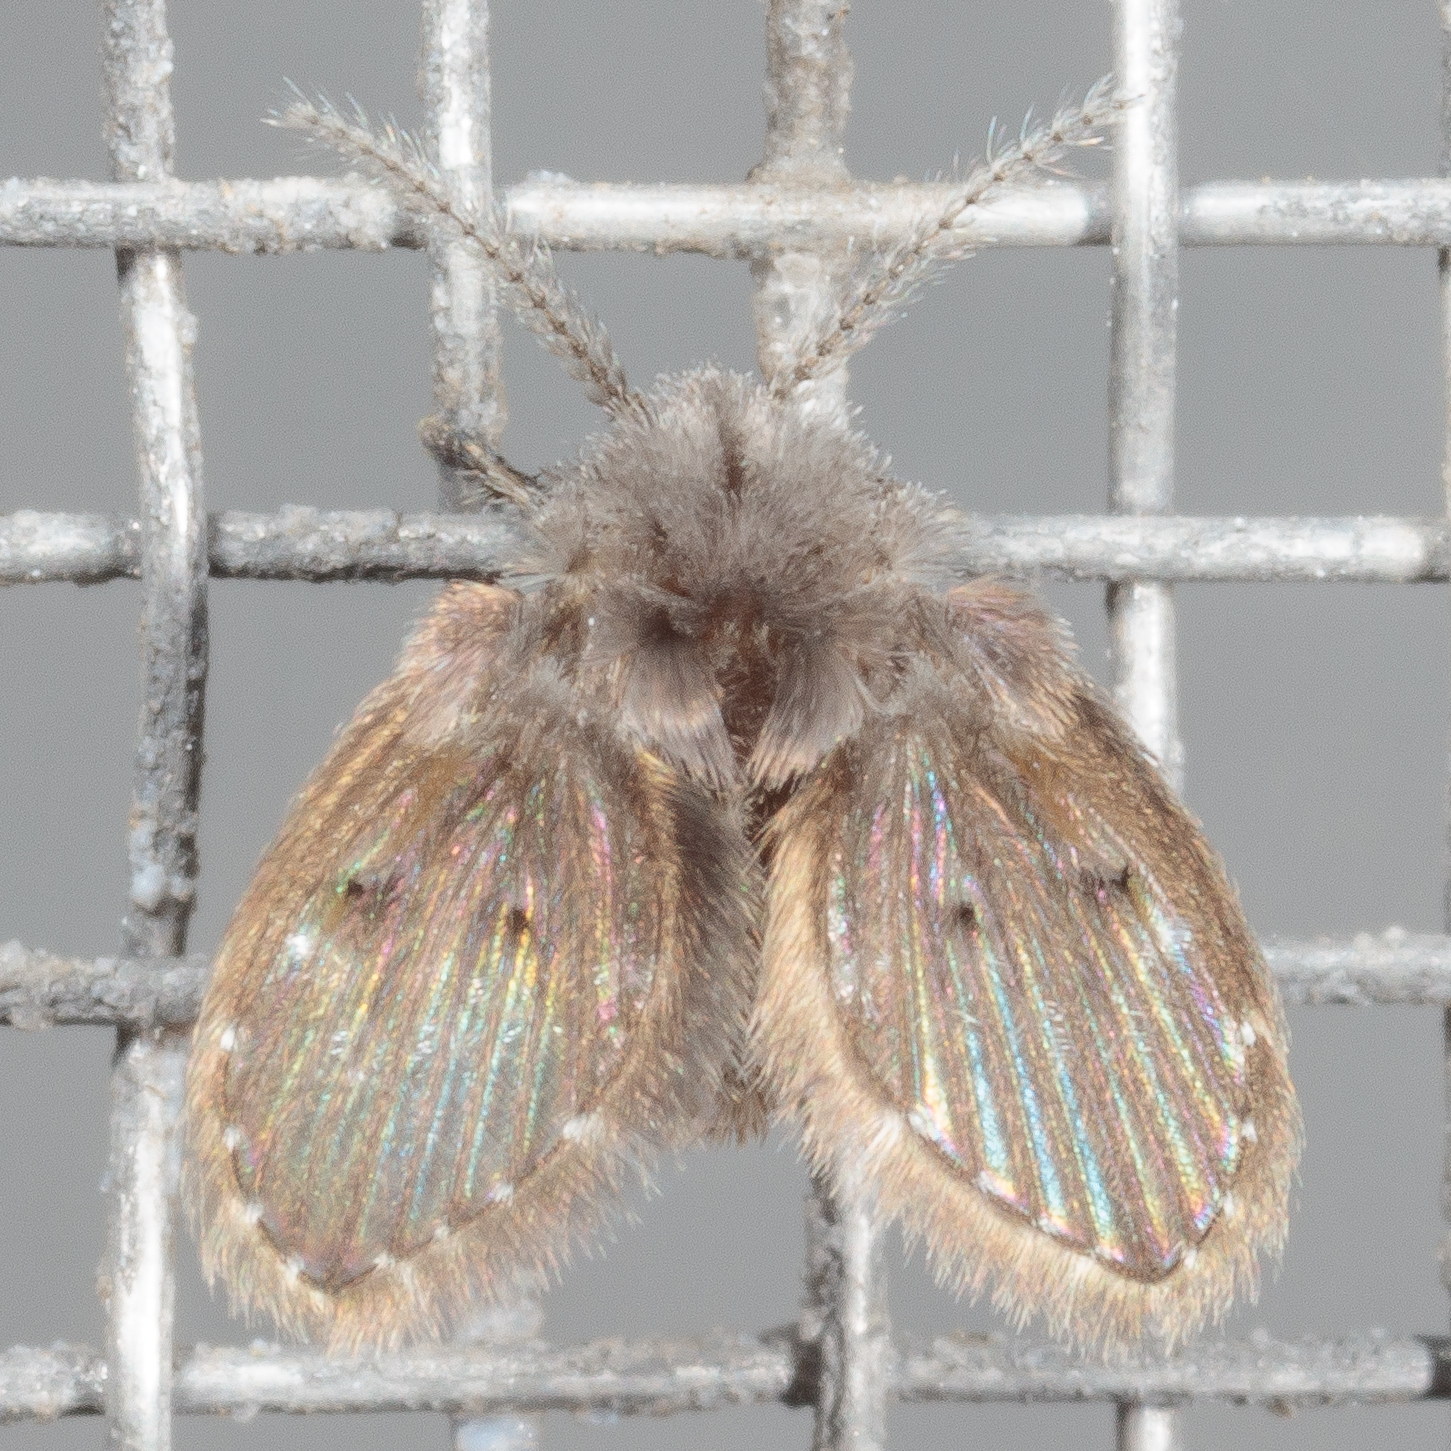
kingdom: Animalia
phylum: Arthropoda
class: Insecta
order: Diptera
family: Psychodidae
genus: Clogmia
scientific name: Clogmia albipunctatus
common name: White-spotted moth fly
